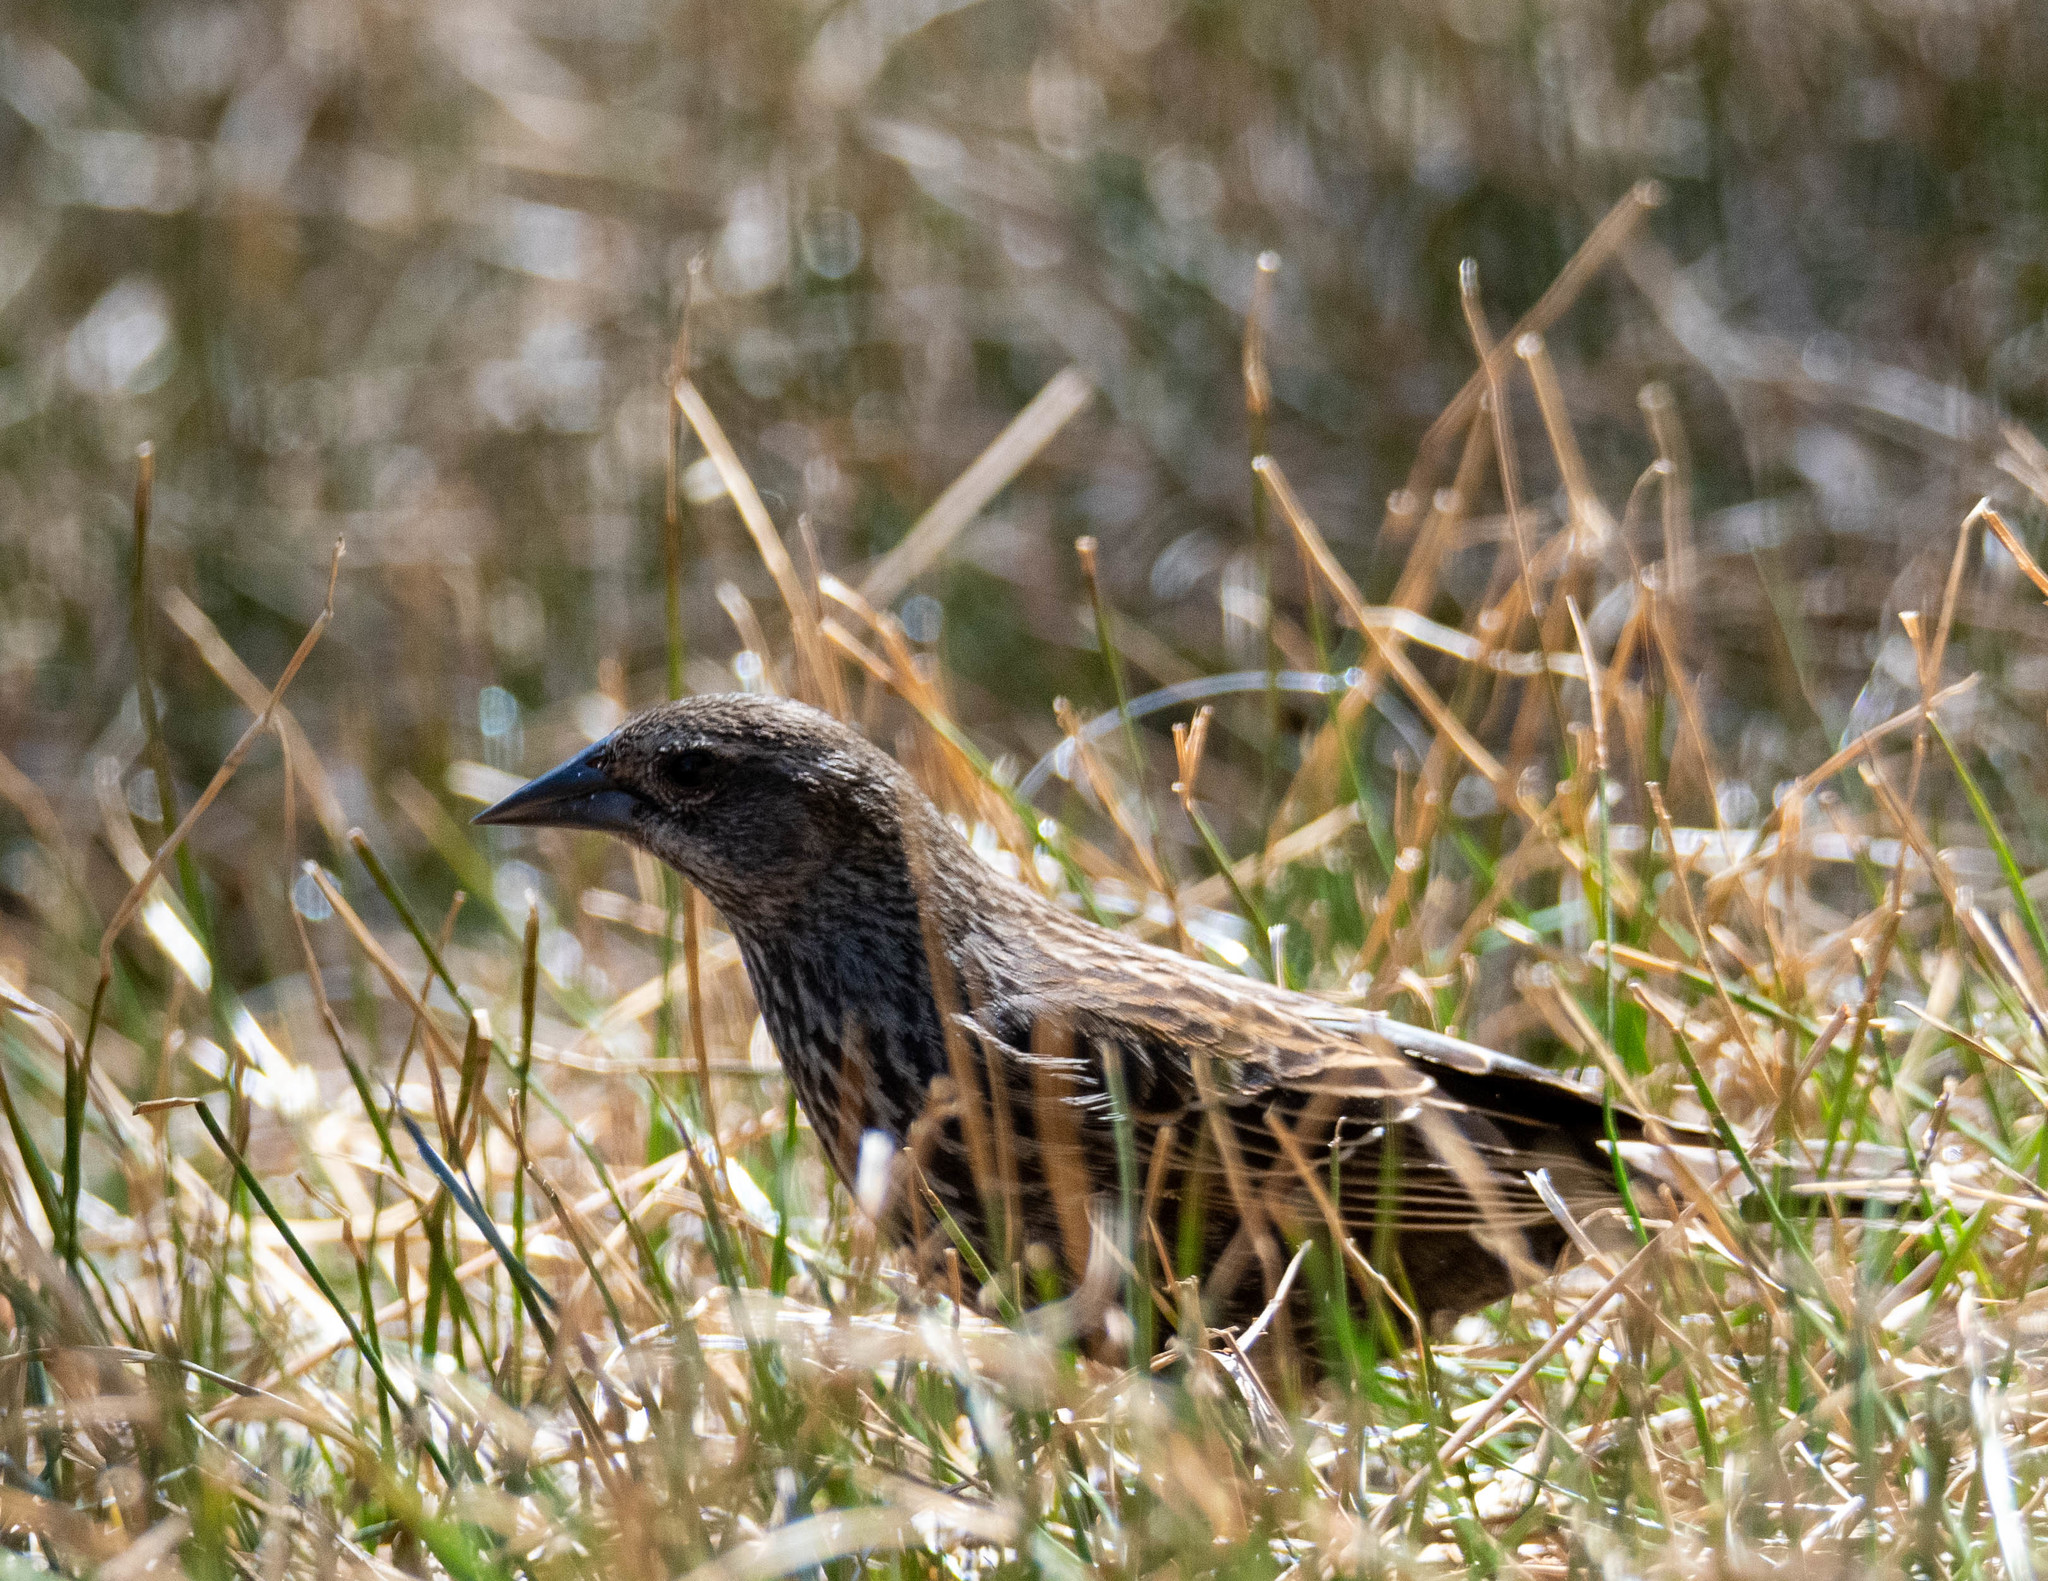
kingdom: Animalia
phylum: Chordata
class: Aves
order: Passeriformes
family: Icteridae
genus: Agelaius
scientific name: Agelaius phoeniceus
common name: Red-winged blackbird
